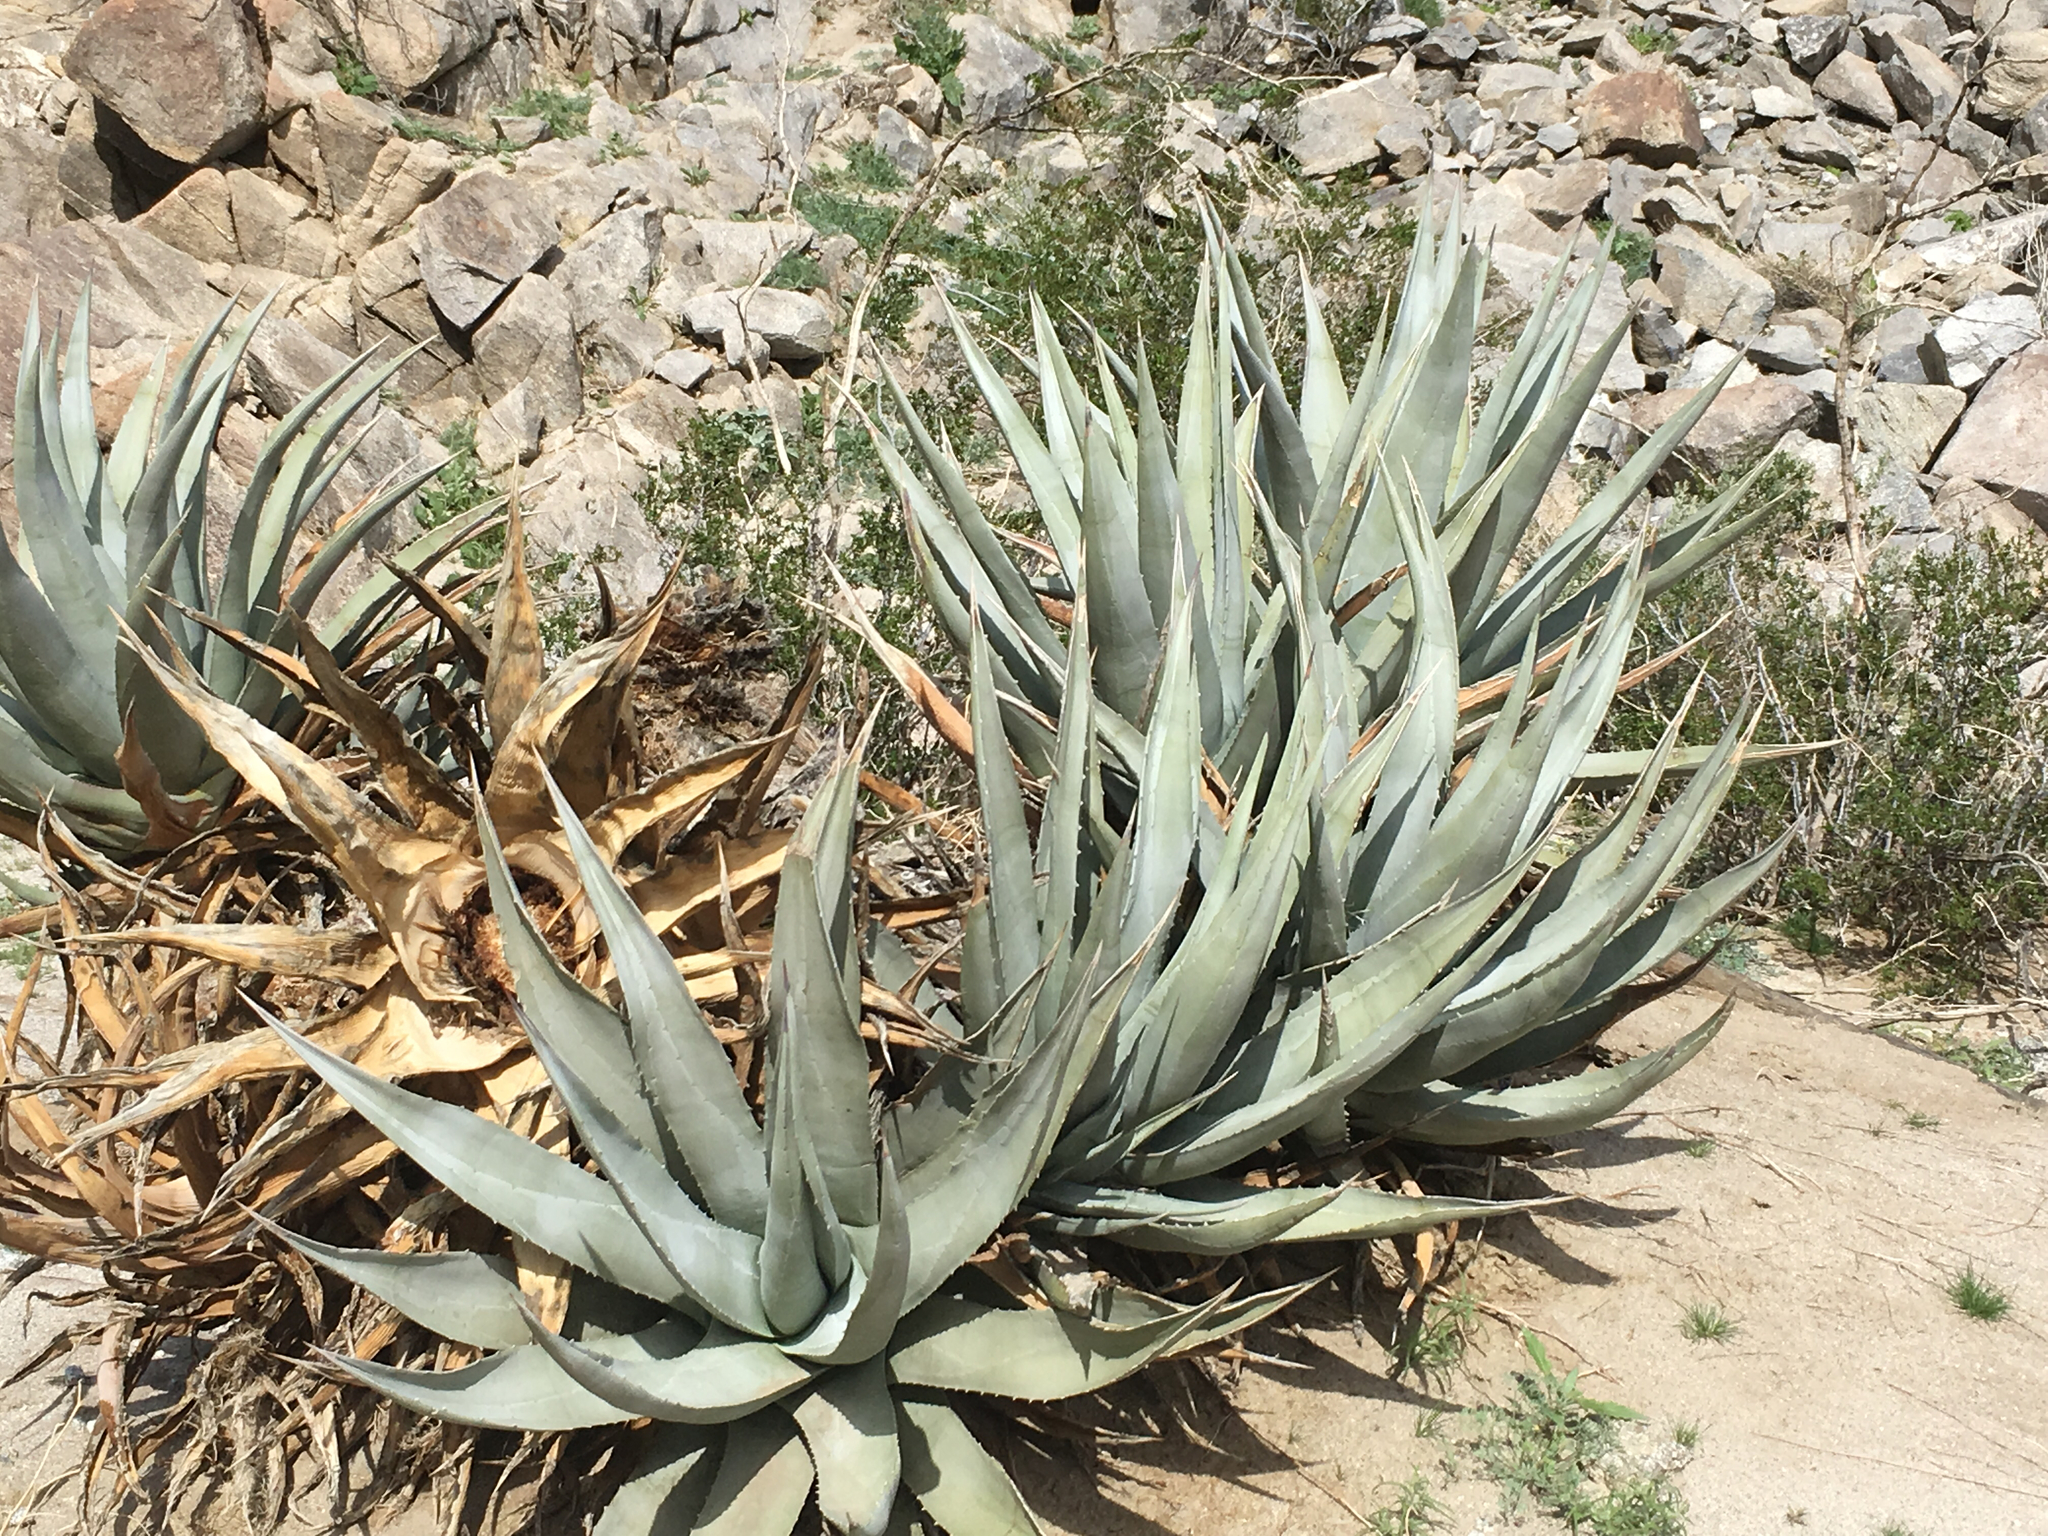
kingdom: Plantae
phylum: Tracheophyta
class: Liliopsida
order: Asparagales
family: Asparagaceae
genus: Agave
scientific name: Agave deserti
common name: Desert agave
